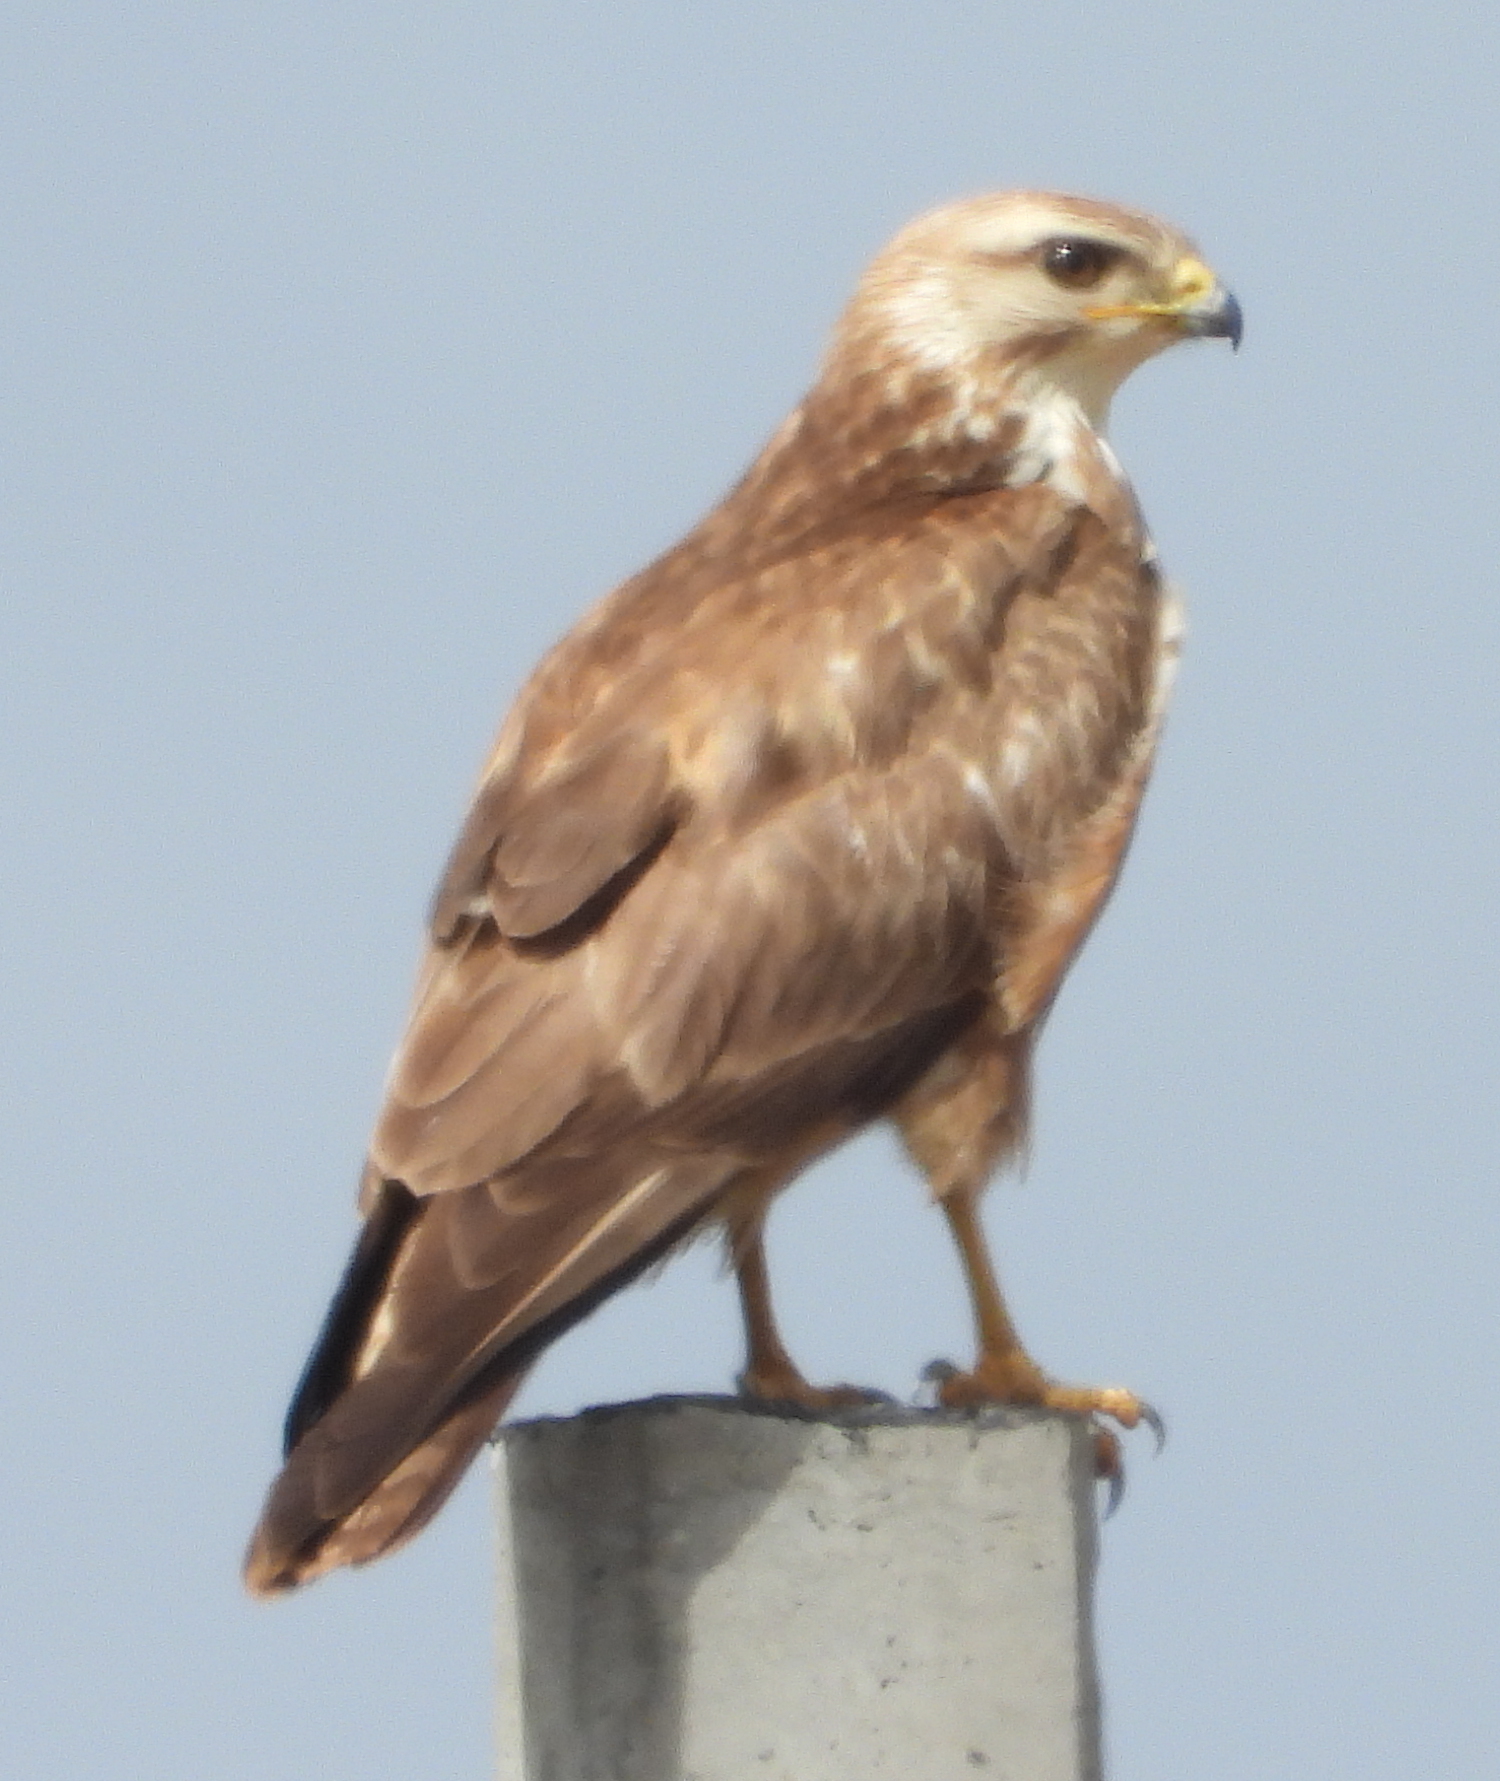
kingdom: Animalia
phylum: Chordata
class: Aves
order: Accipitriformes
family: Accipitridae
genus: Buteo
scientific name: Buteo buteo
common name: Common buzzard
